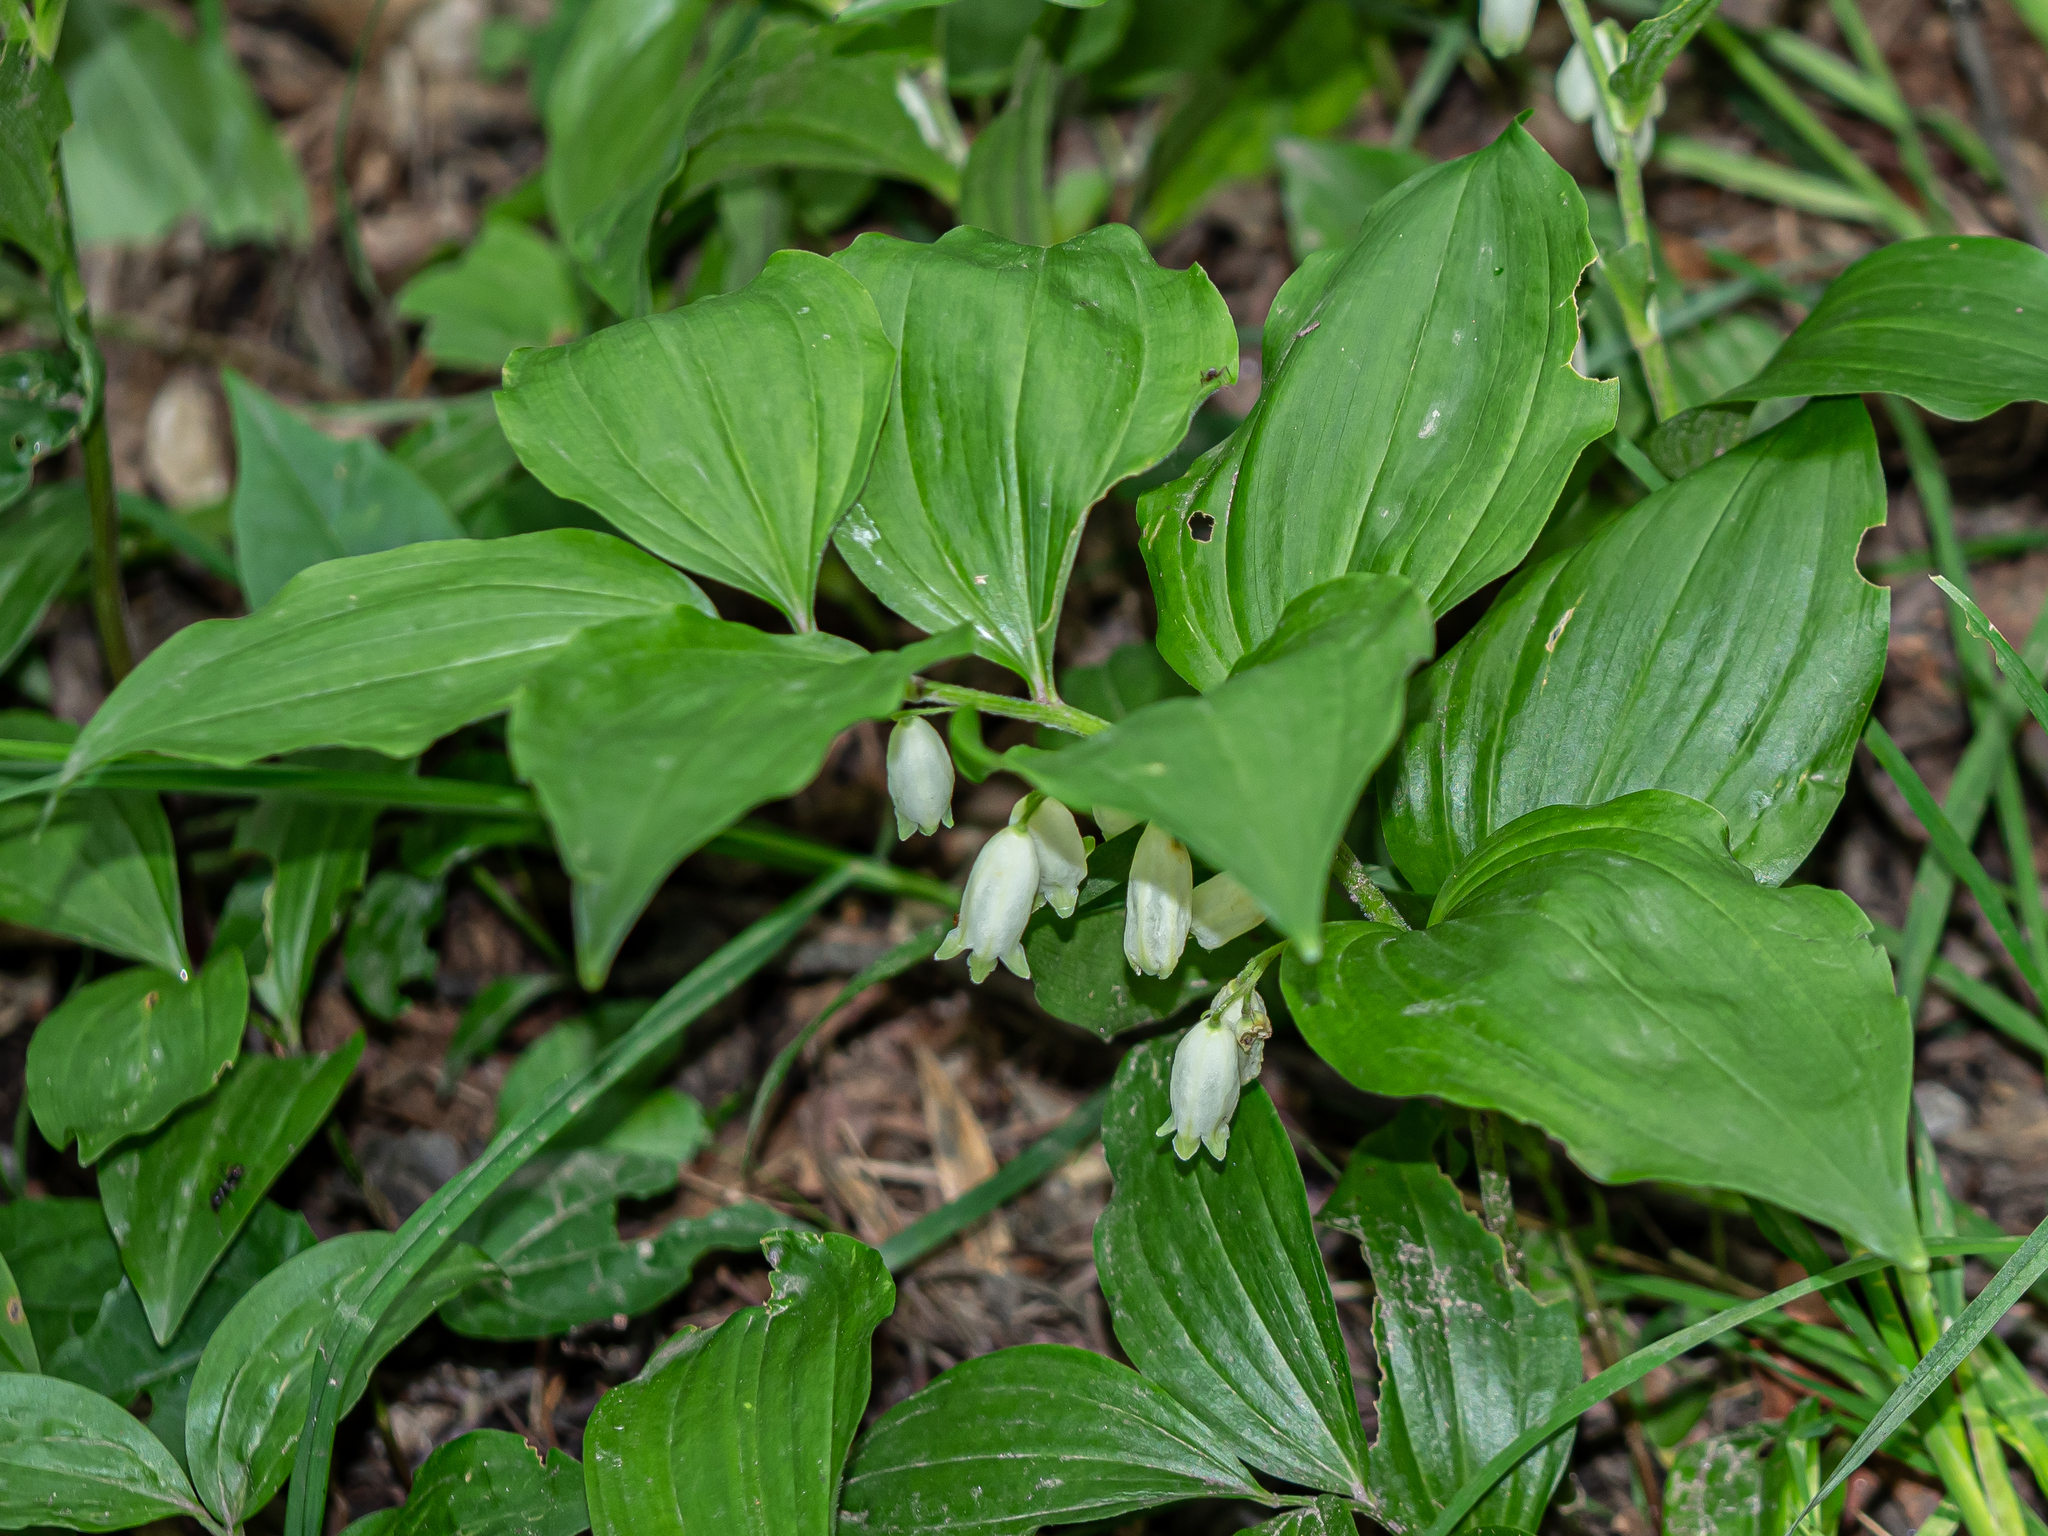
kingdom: Plantae
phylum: Tracheophyta
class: Liliopsida
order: Asparagales
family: Asparagaceae
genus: Polygonatum
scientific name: Polygonatum latifolium
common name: Broadleaf solomon's seal
